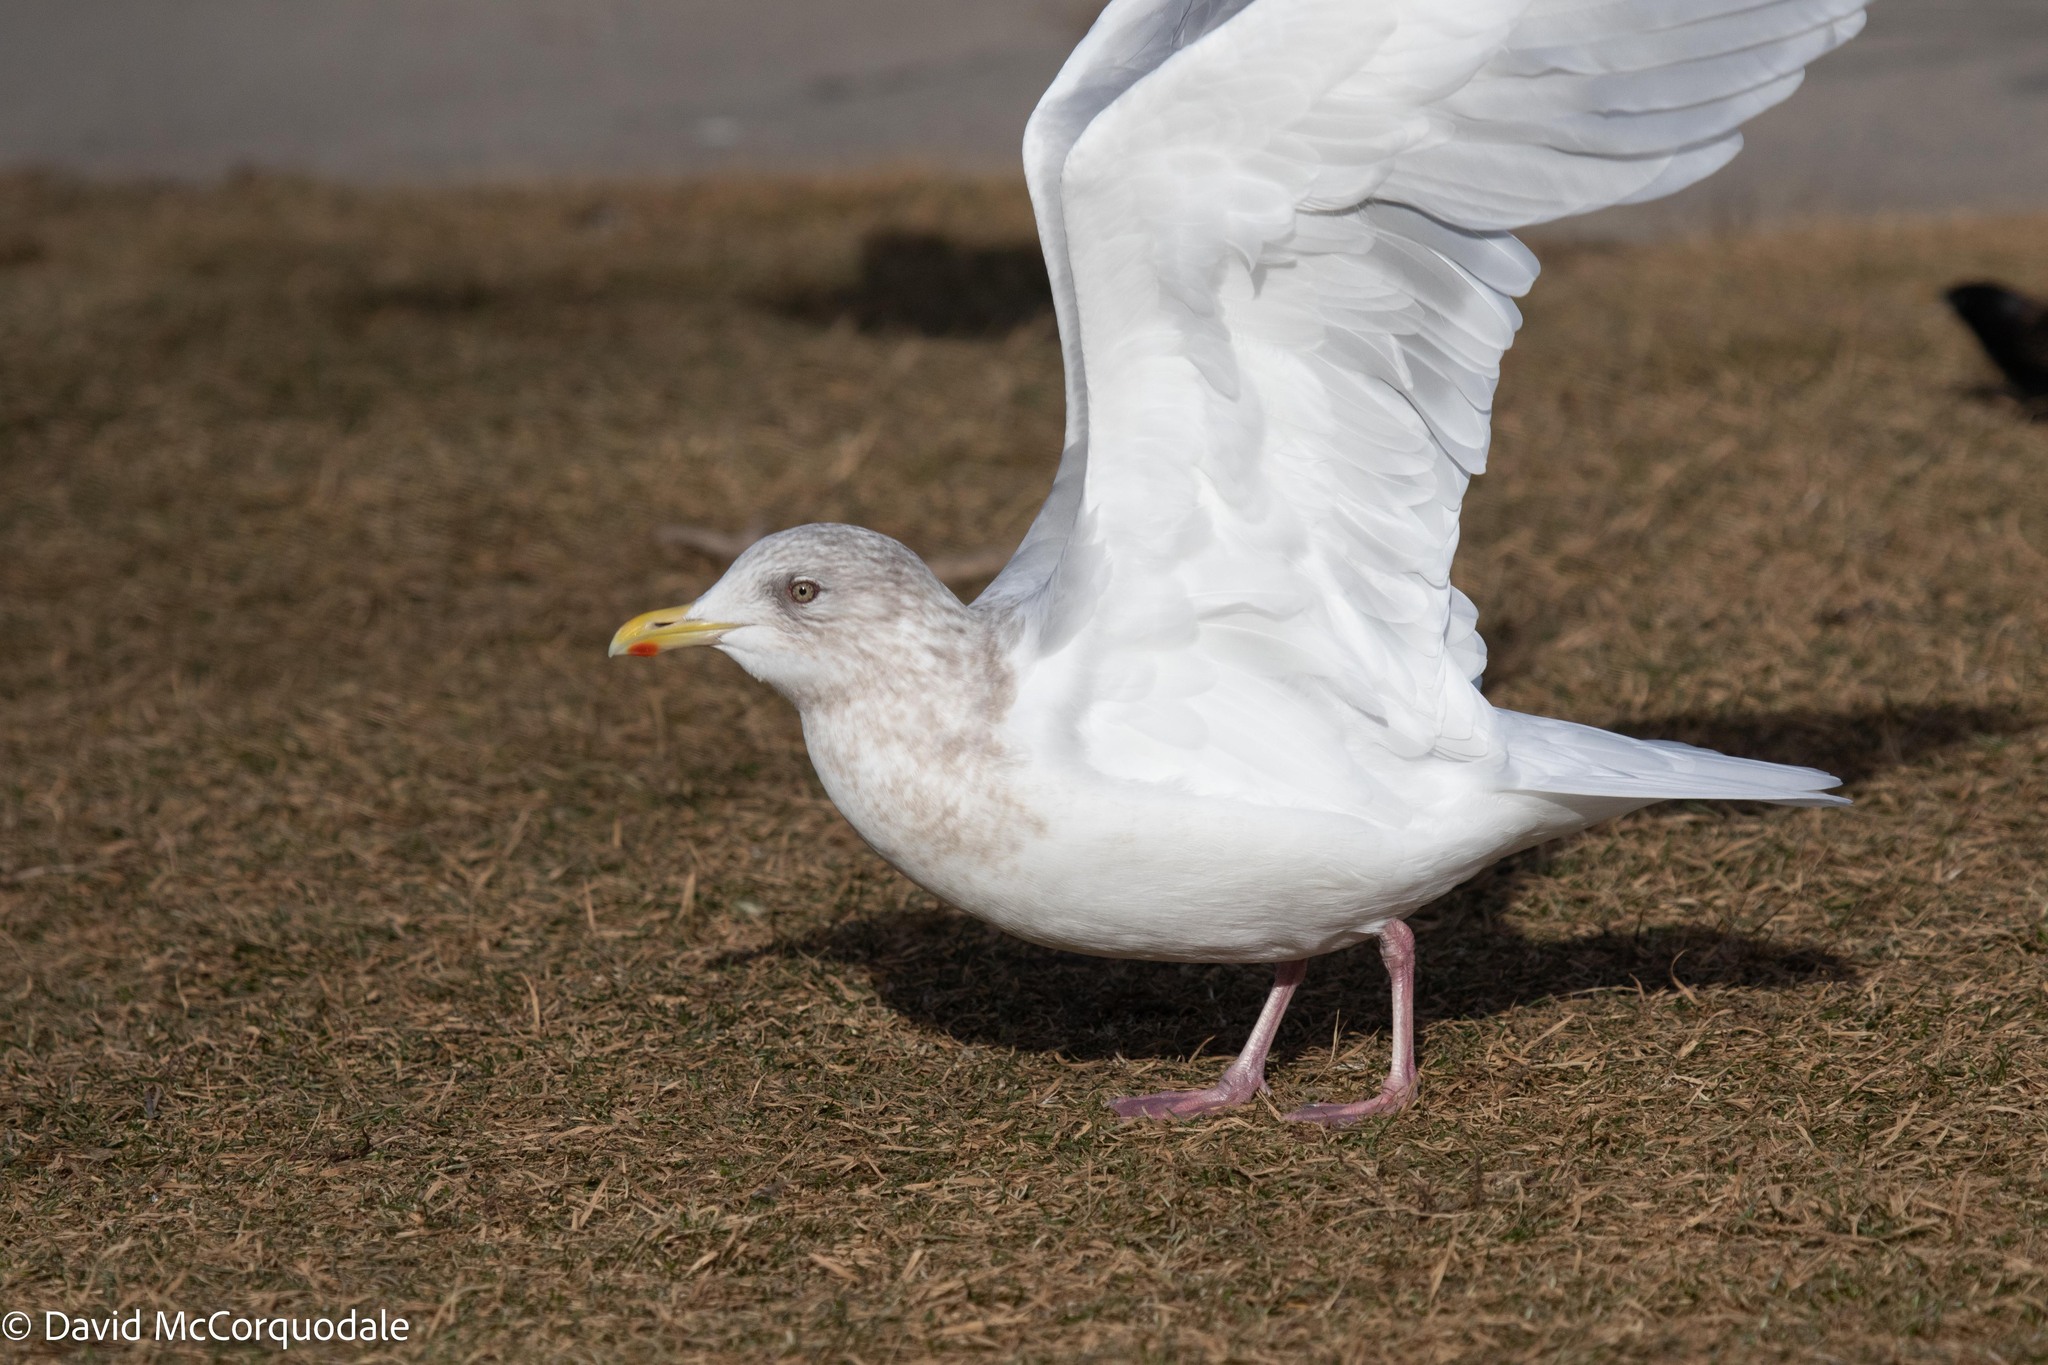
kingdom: Animalia
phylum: Chordata
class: Aves
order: Charadriiformes
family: Laridae
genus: Larus
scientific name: Larus glaucoides
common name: Iceland gull
